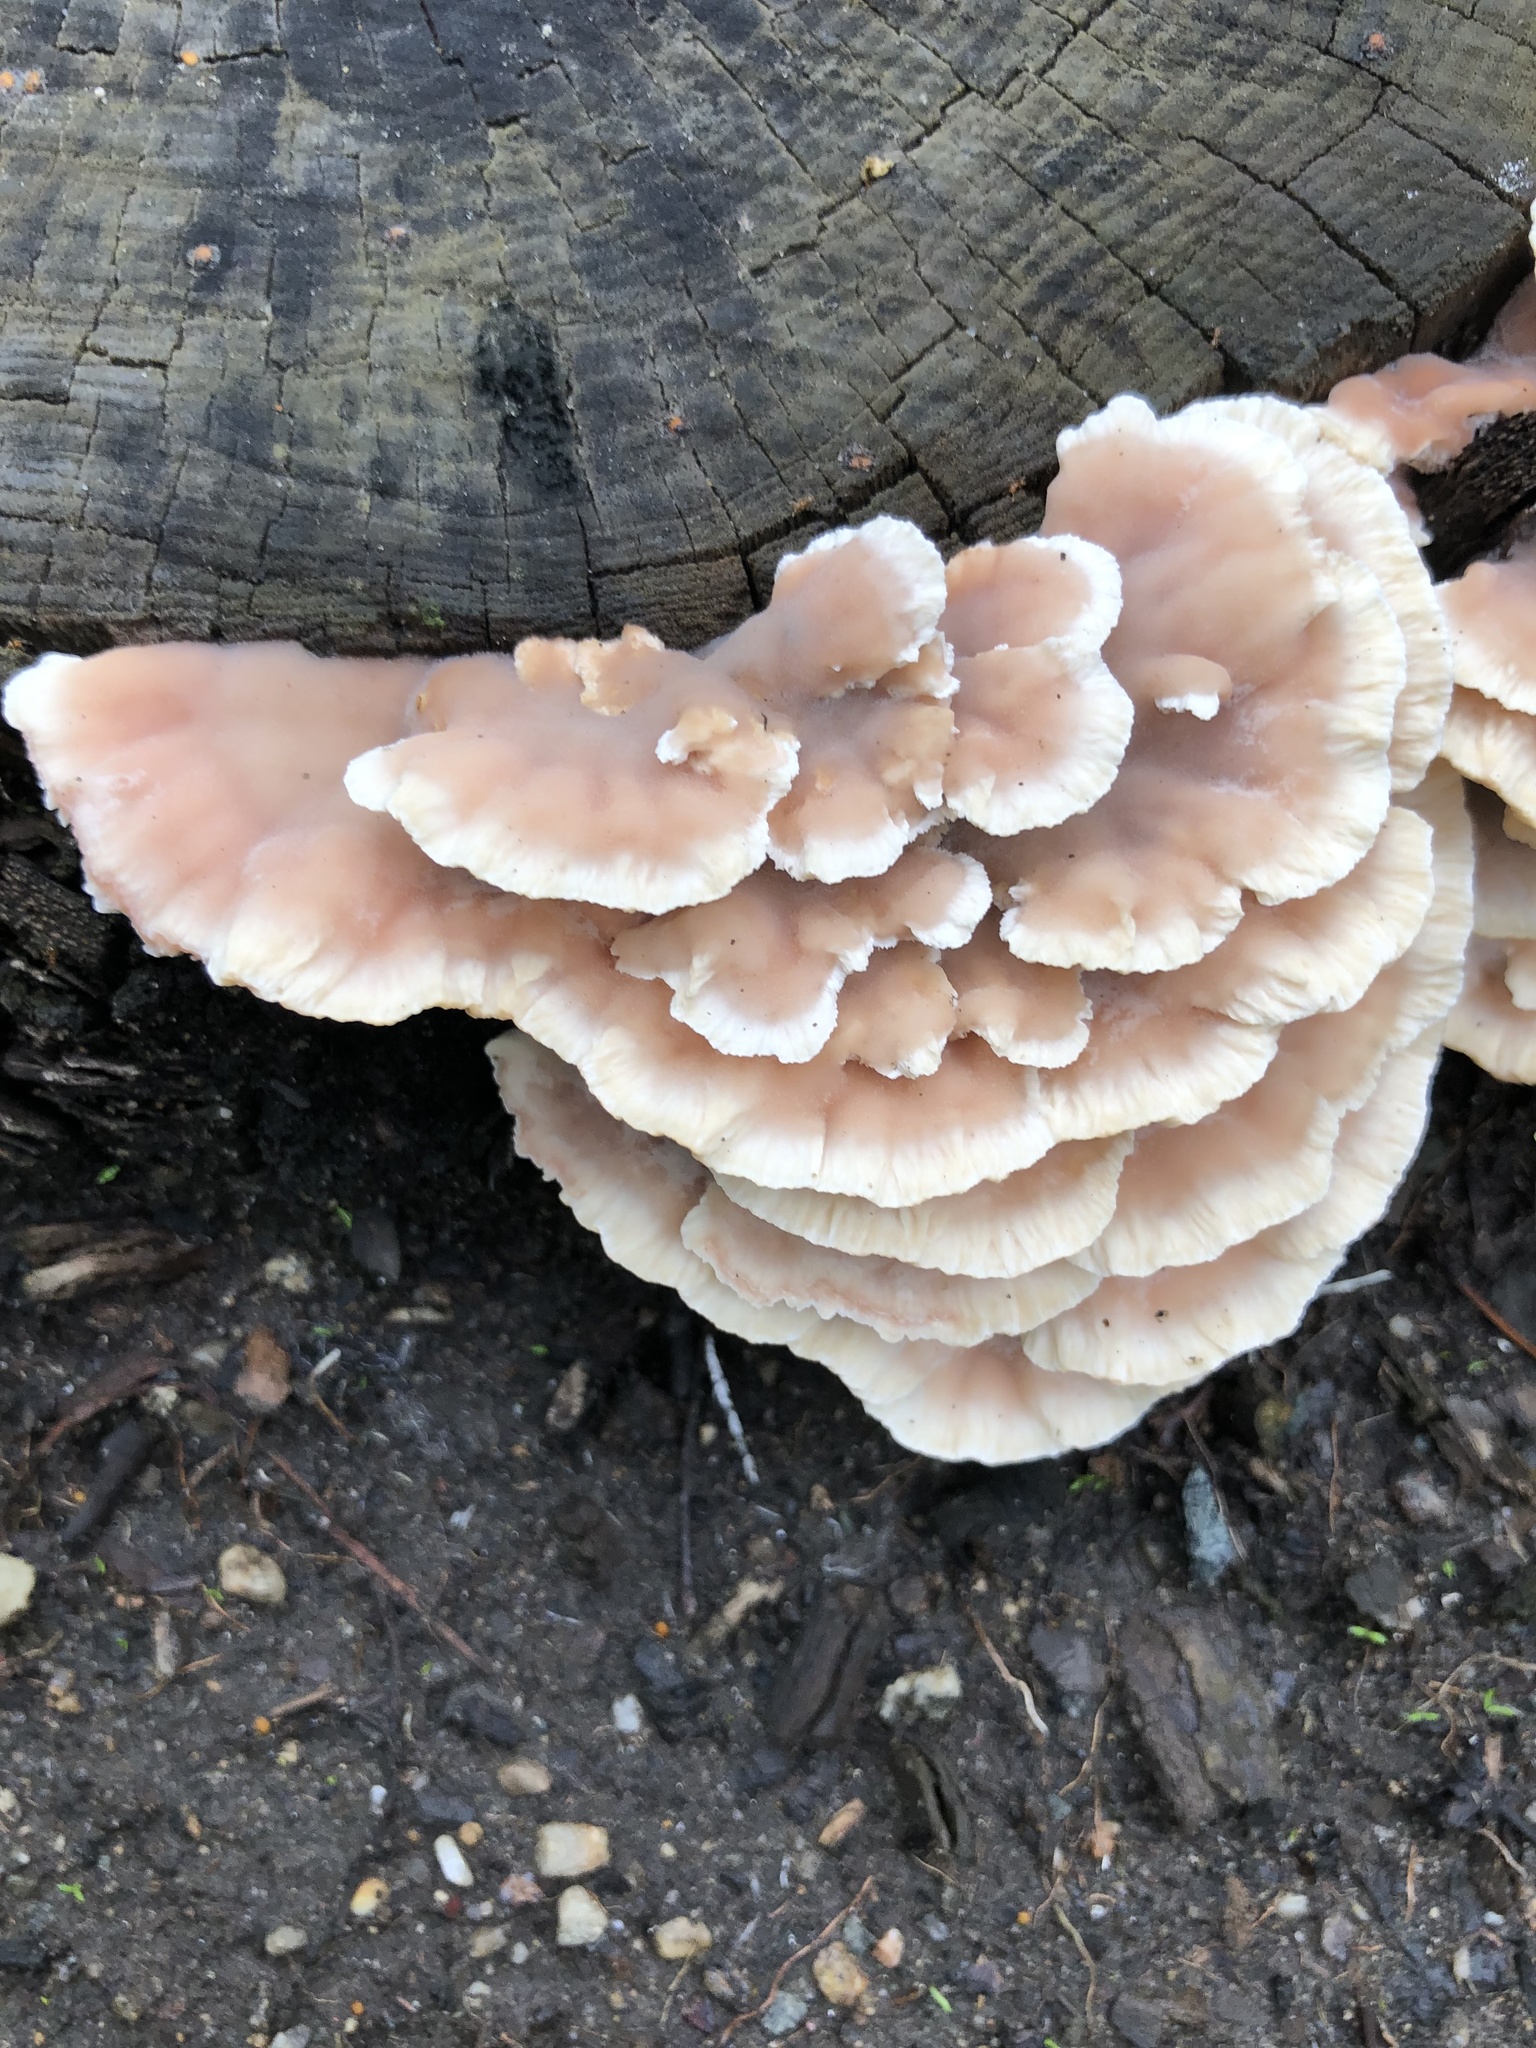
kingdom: Fungi
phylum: Basidiomycota
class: Agaricomycetes
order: Polyporales
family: Podoscyphaceae
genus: Abortiporus
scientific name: Abortiporus biennis
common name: Blushing rosette
